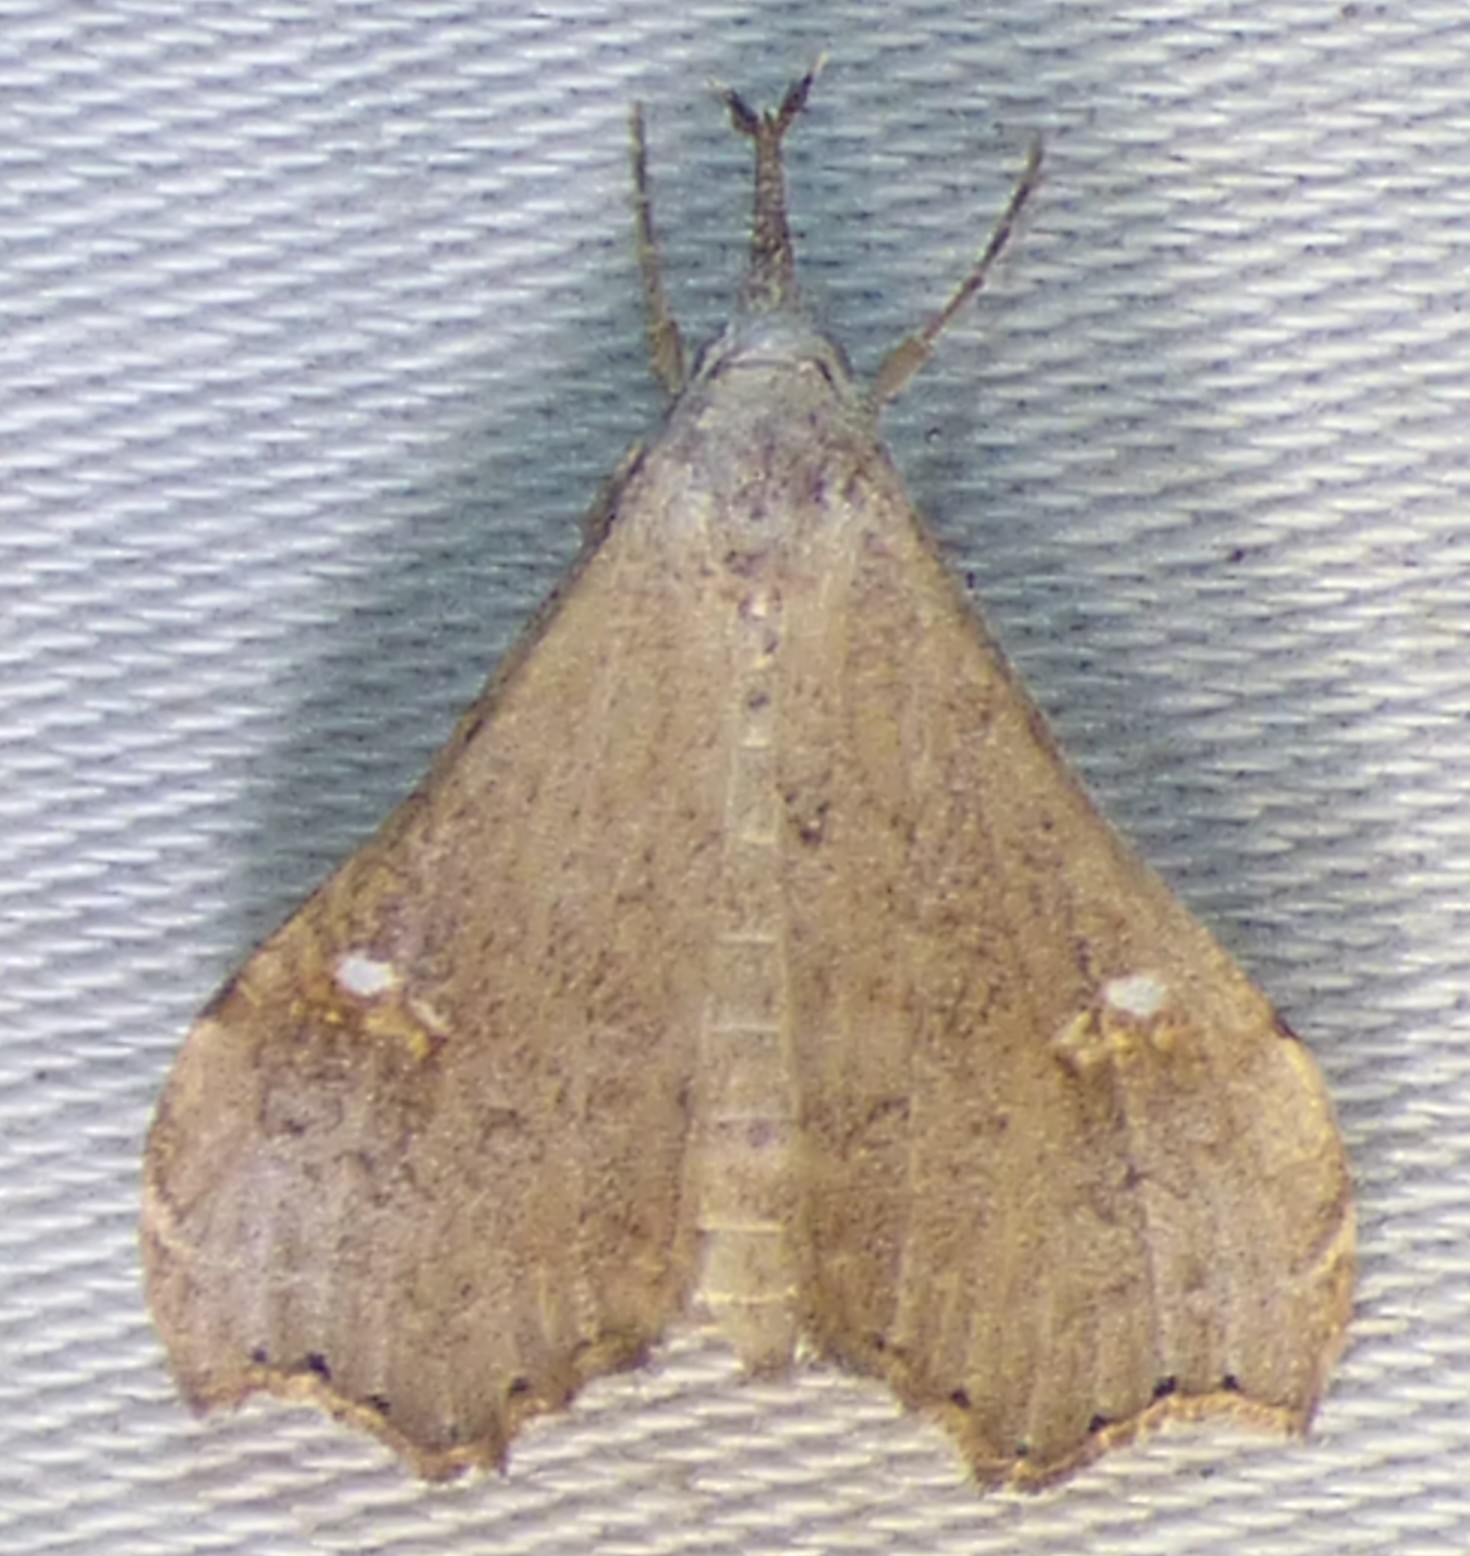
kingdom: Animalia
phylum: Arthropoda
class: Insecta
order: Lepidoptera
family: Erebidae
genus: Redectis
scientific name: Redectis vitrea
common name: White-spotted redectis
